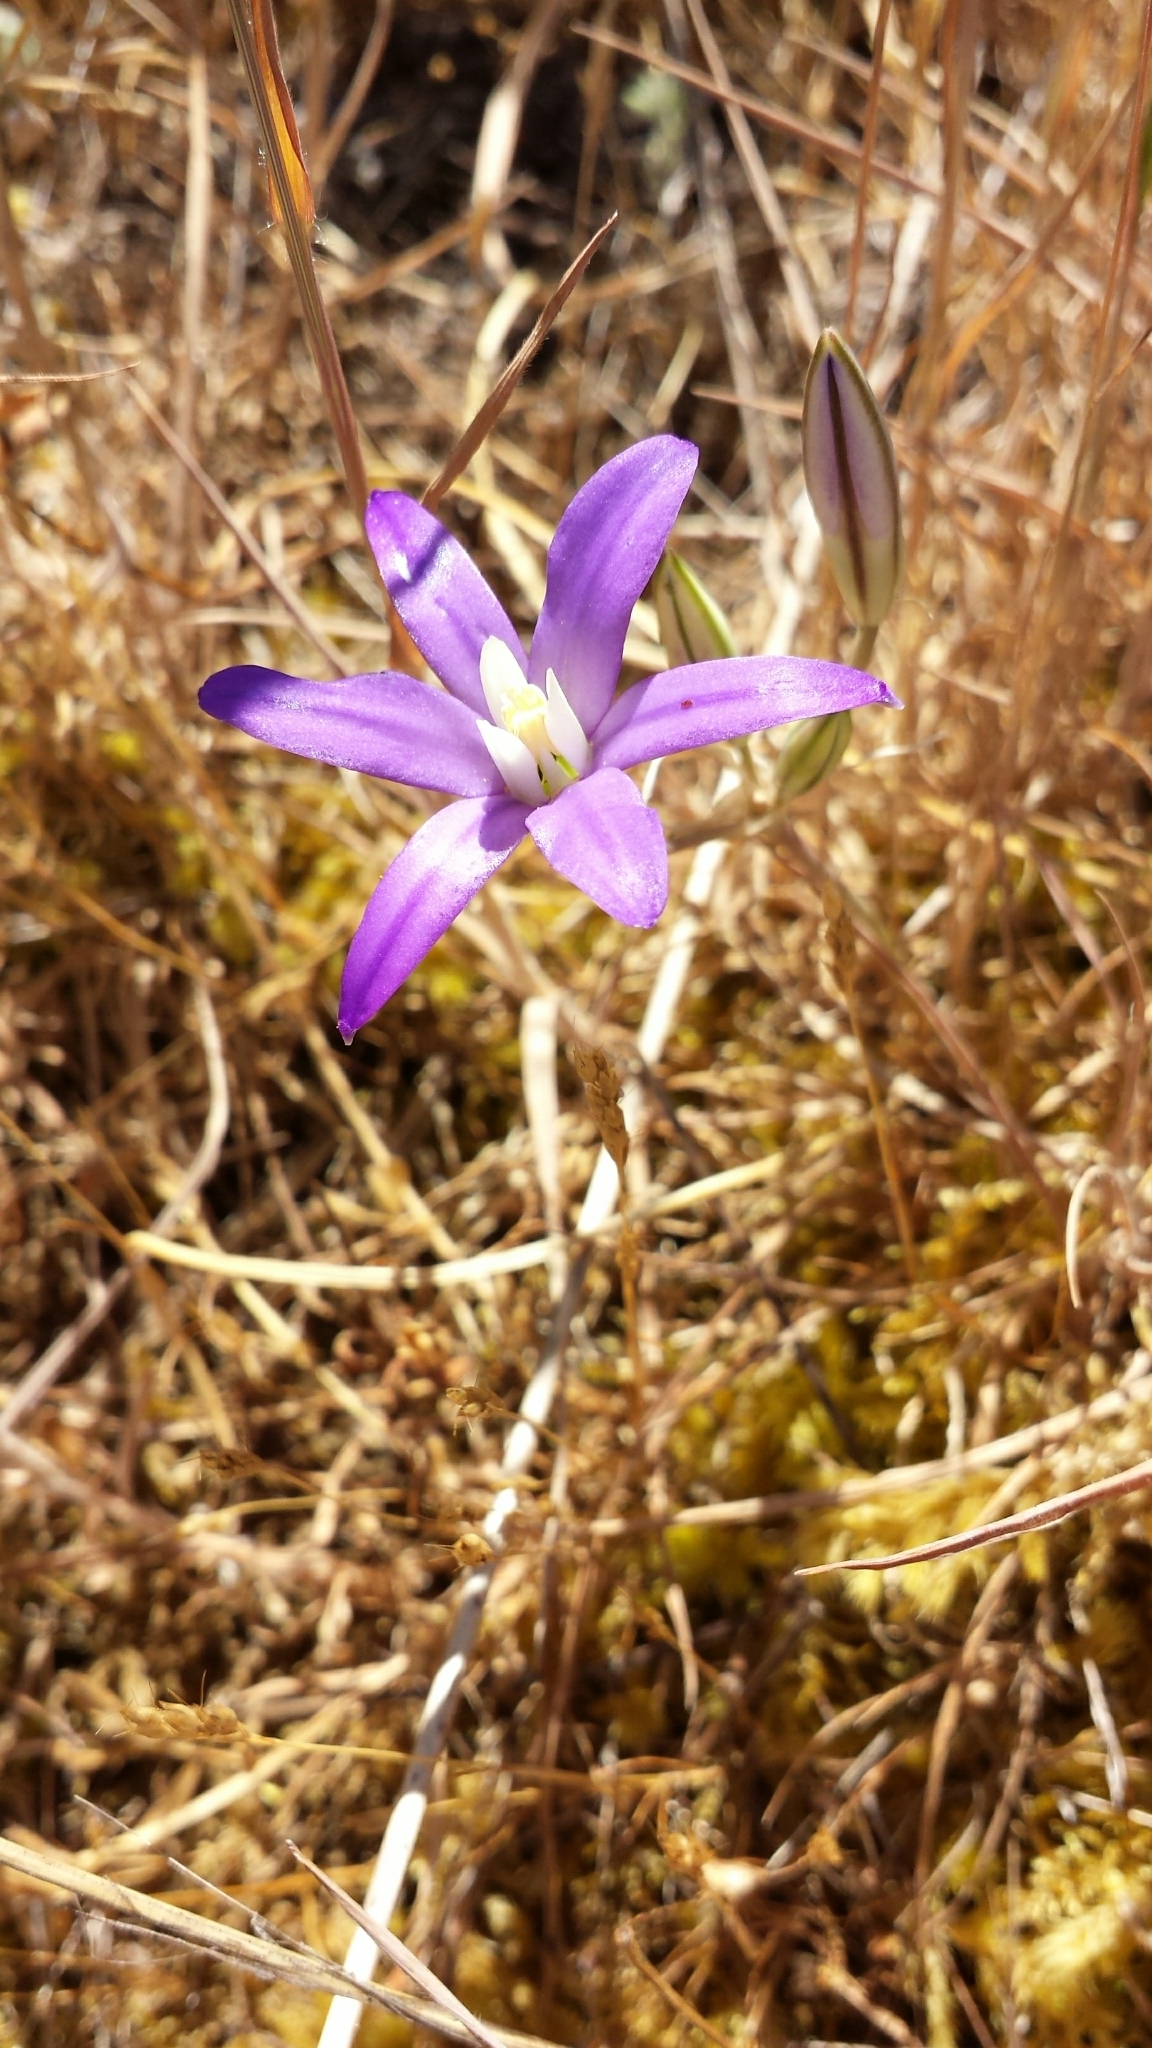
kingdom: Plantae
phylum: Tracheophyta
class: Liliopsida
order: Asparagales
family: Asparagaceae
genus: Brodiaea
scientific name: Brodiaea coronaria
